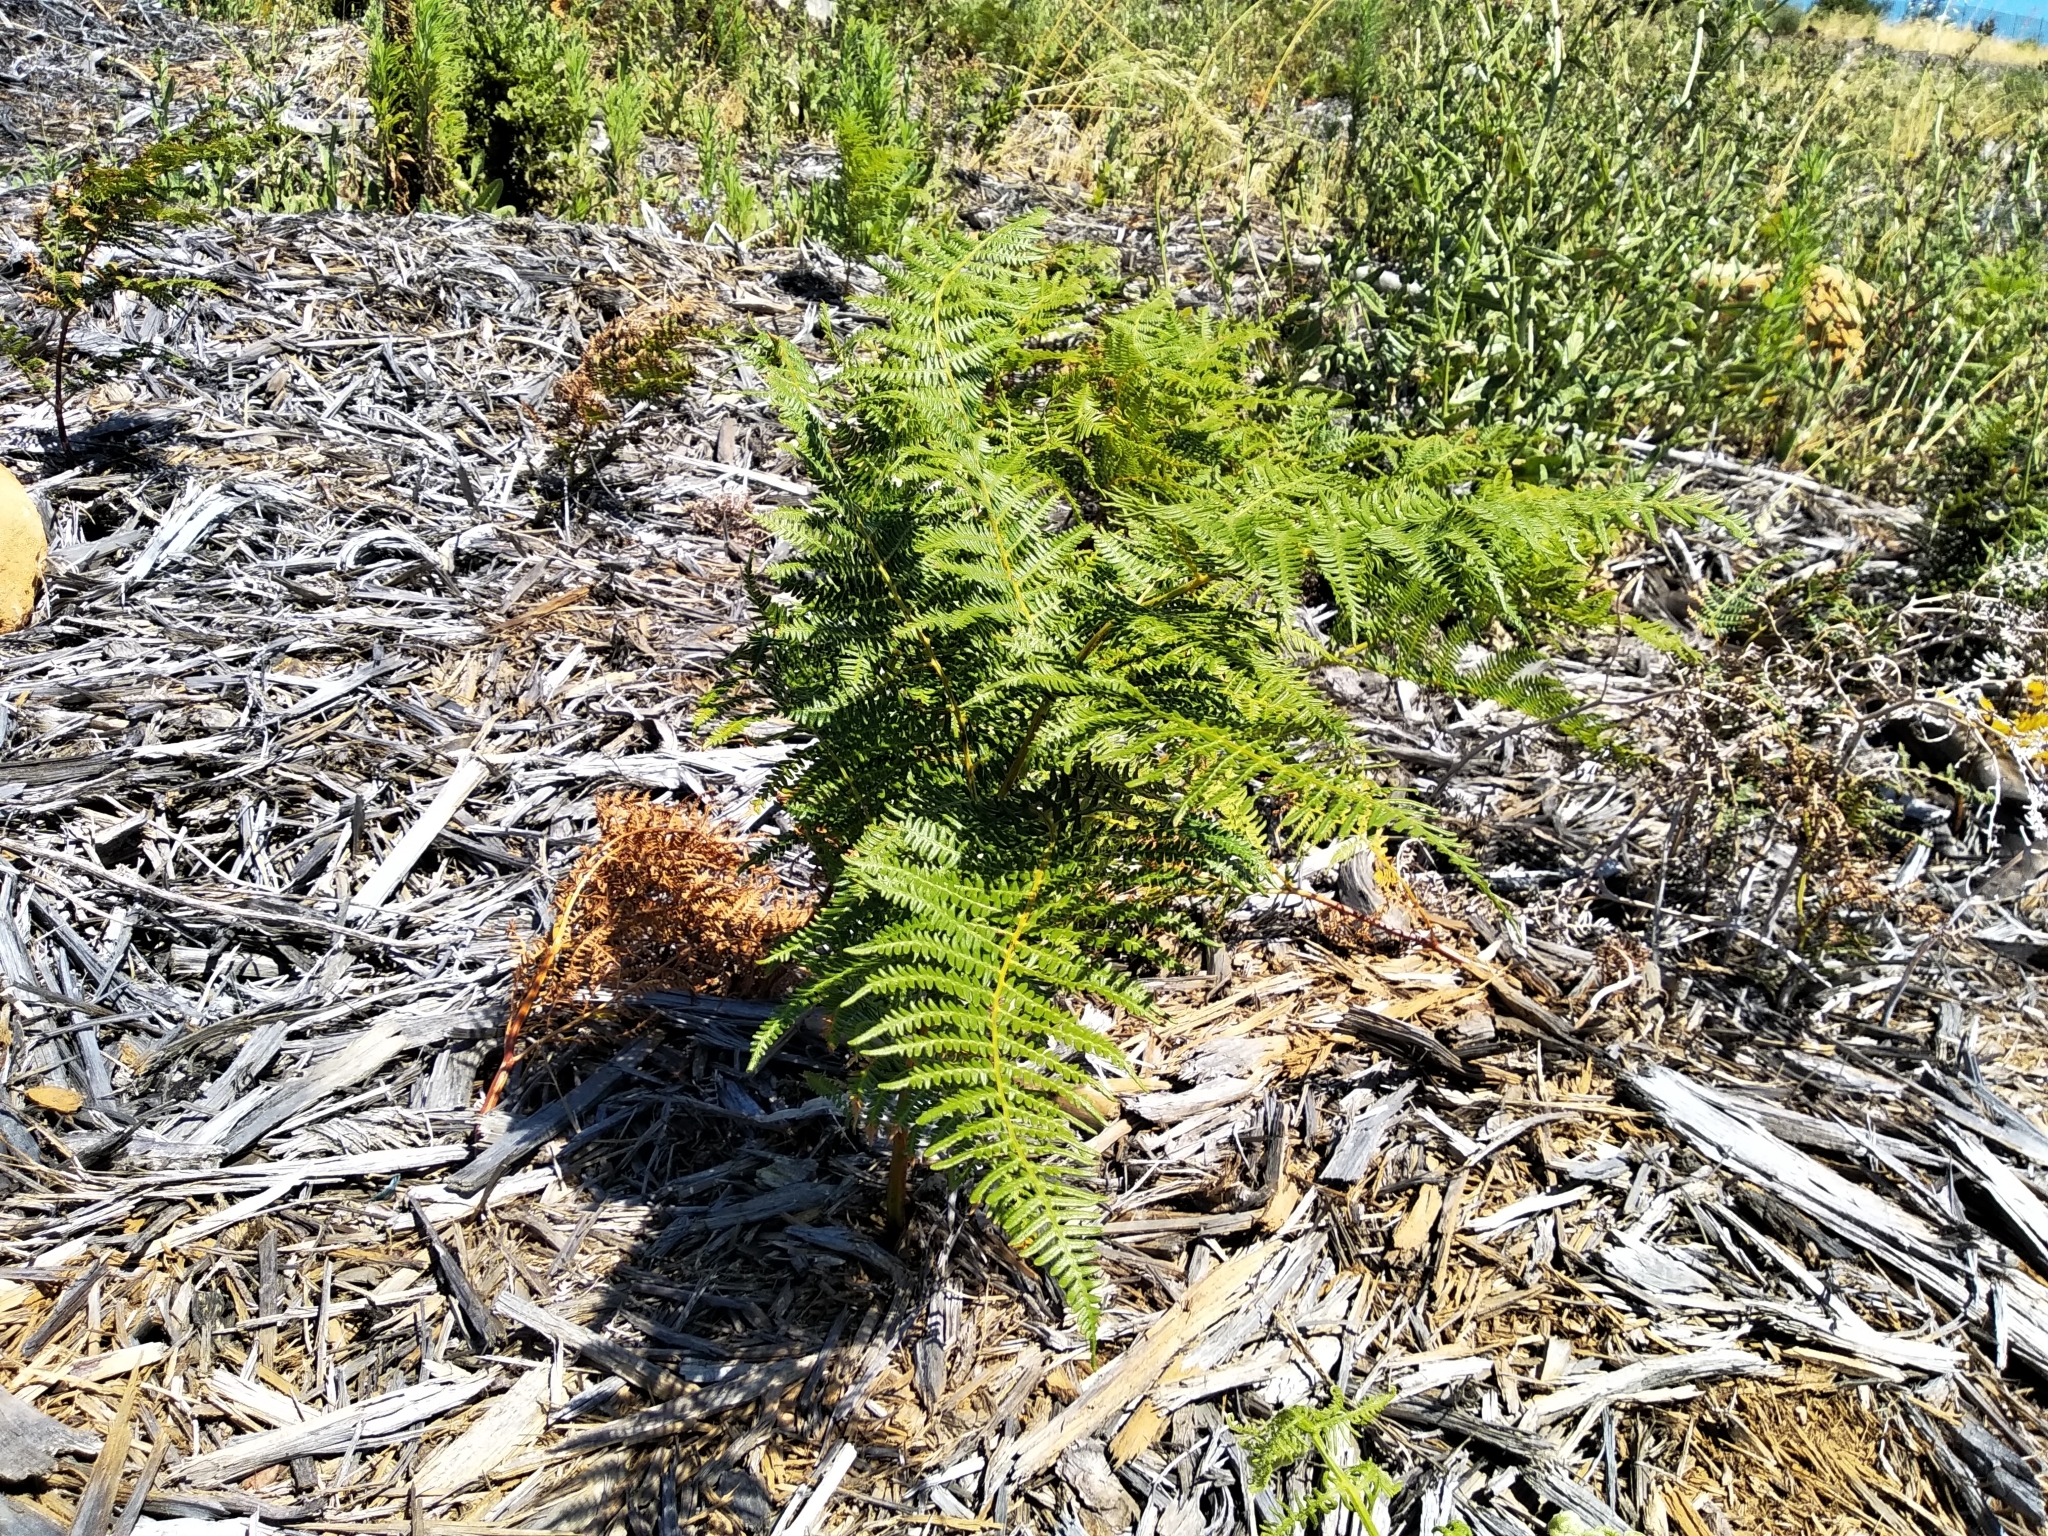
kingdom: Plantae
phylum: Tracheophyta
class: Polypodiopsida
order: Polypodiales
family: Dennstaedtiaceae
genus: Pteridium
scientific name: Pteridium aquilinum
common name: Bracken
